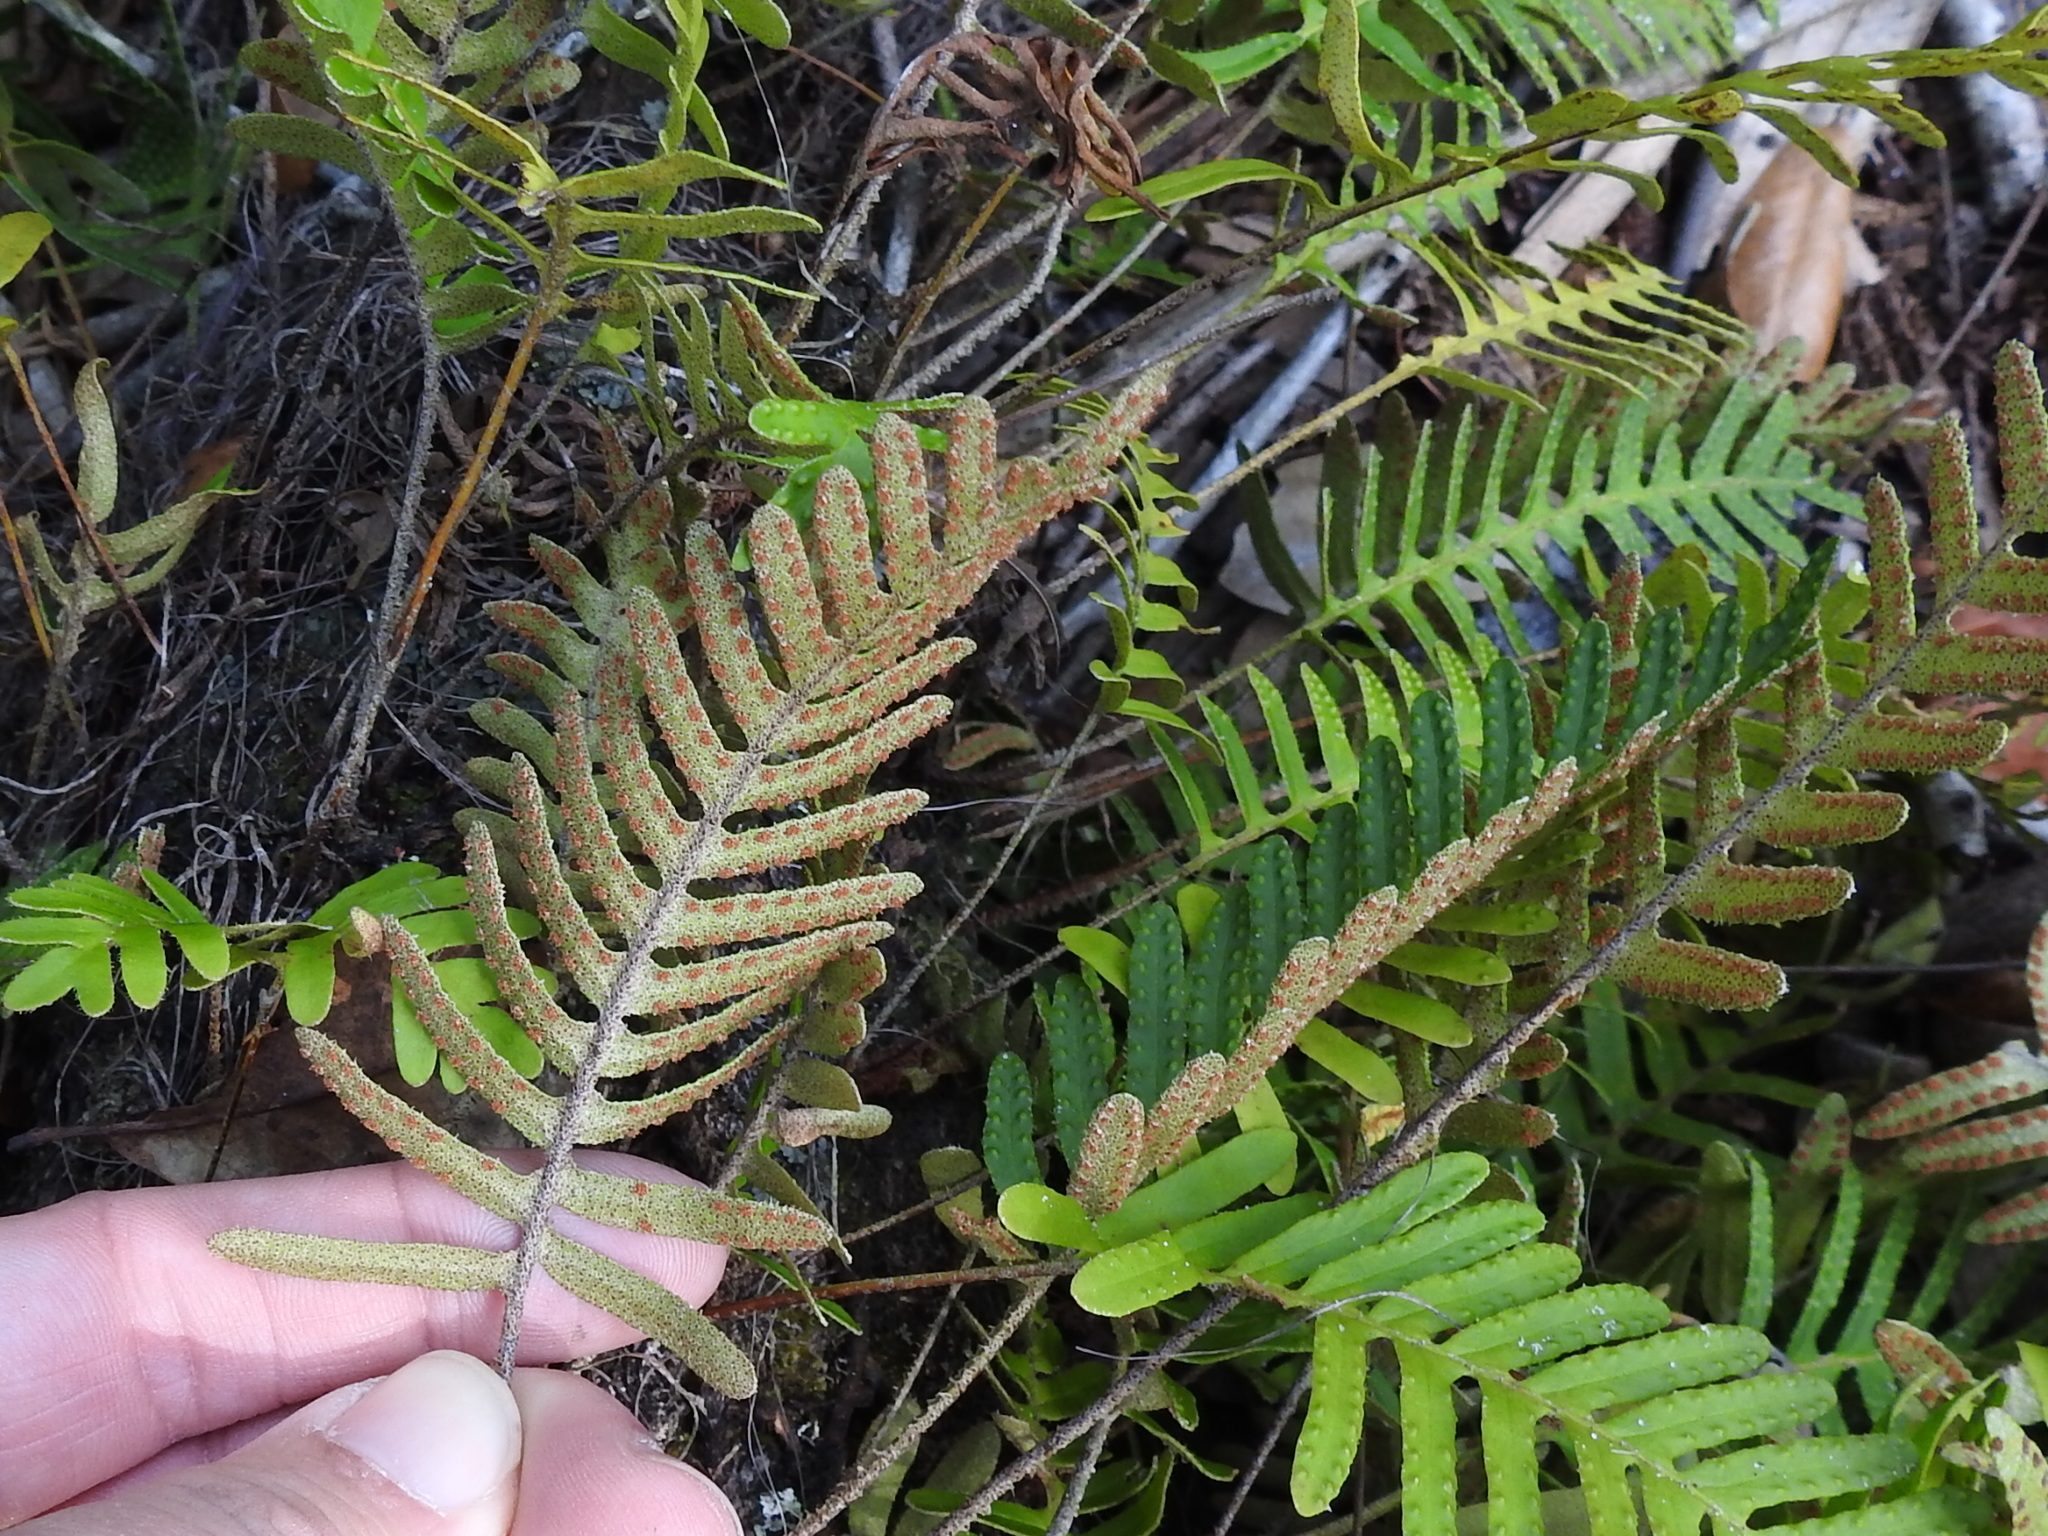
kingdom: Plantae
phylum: Tracheophyta
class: Polypodiopsida
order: Polypodiales
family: Polypodiaceae
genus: Pleopeltis
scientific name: Pleopeltis michauxiana
